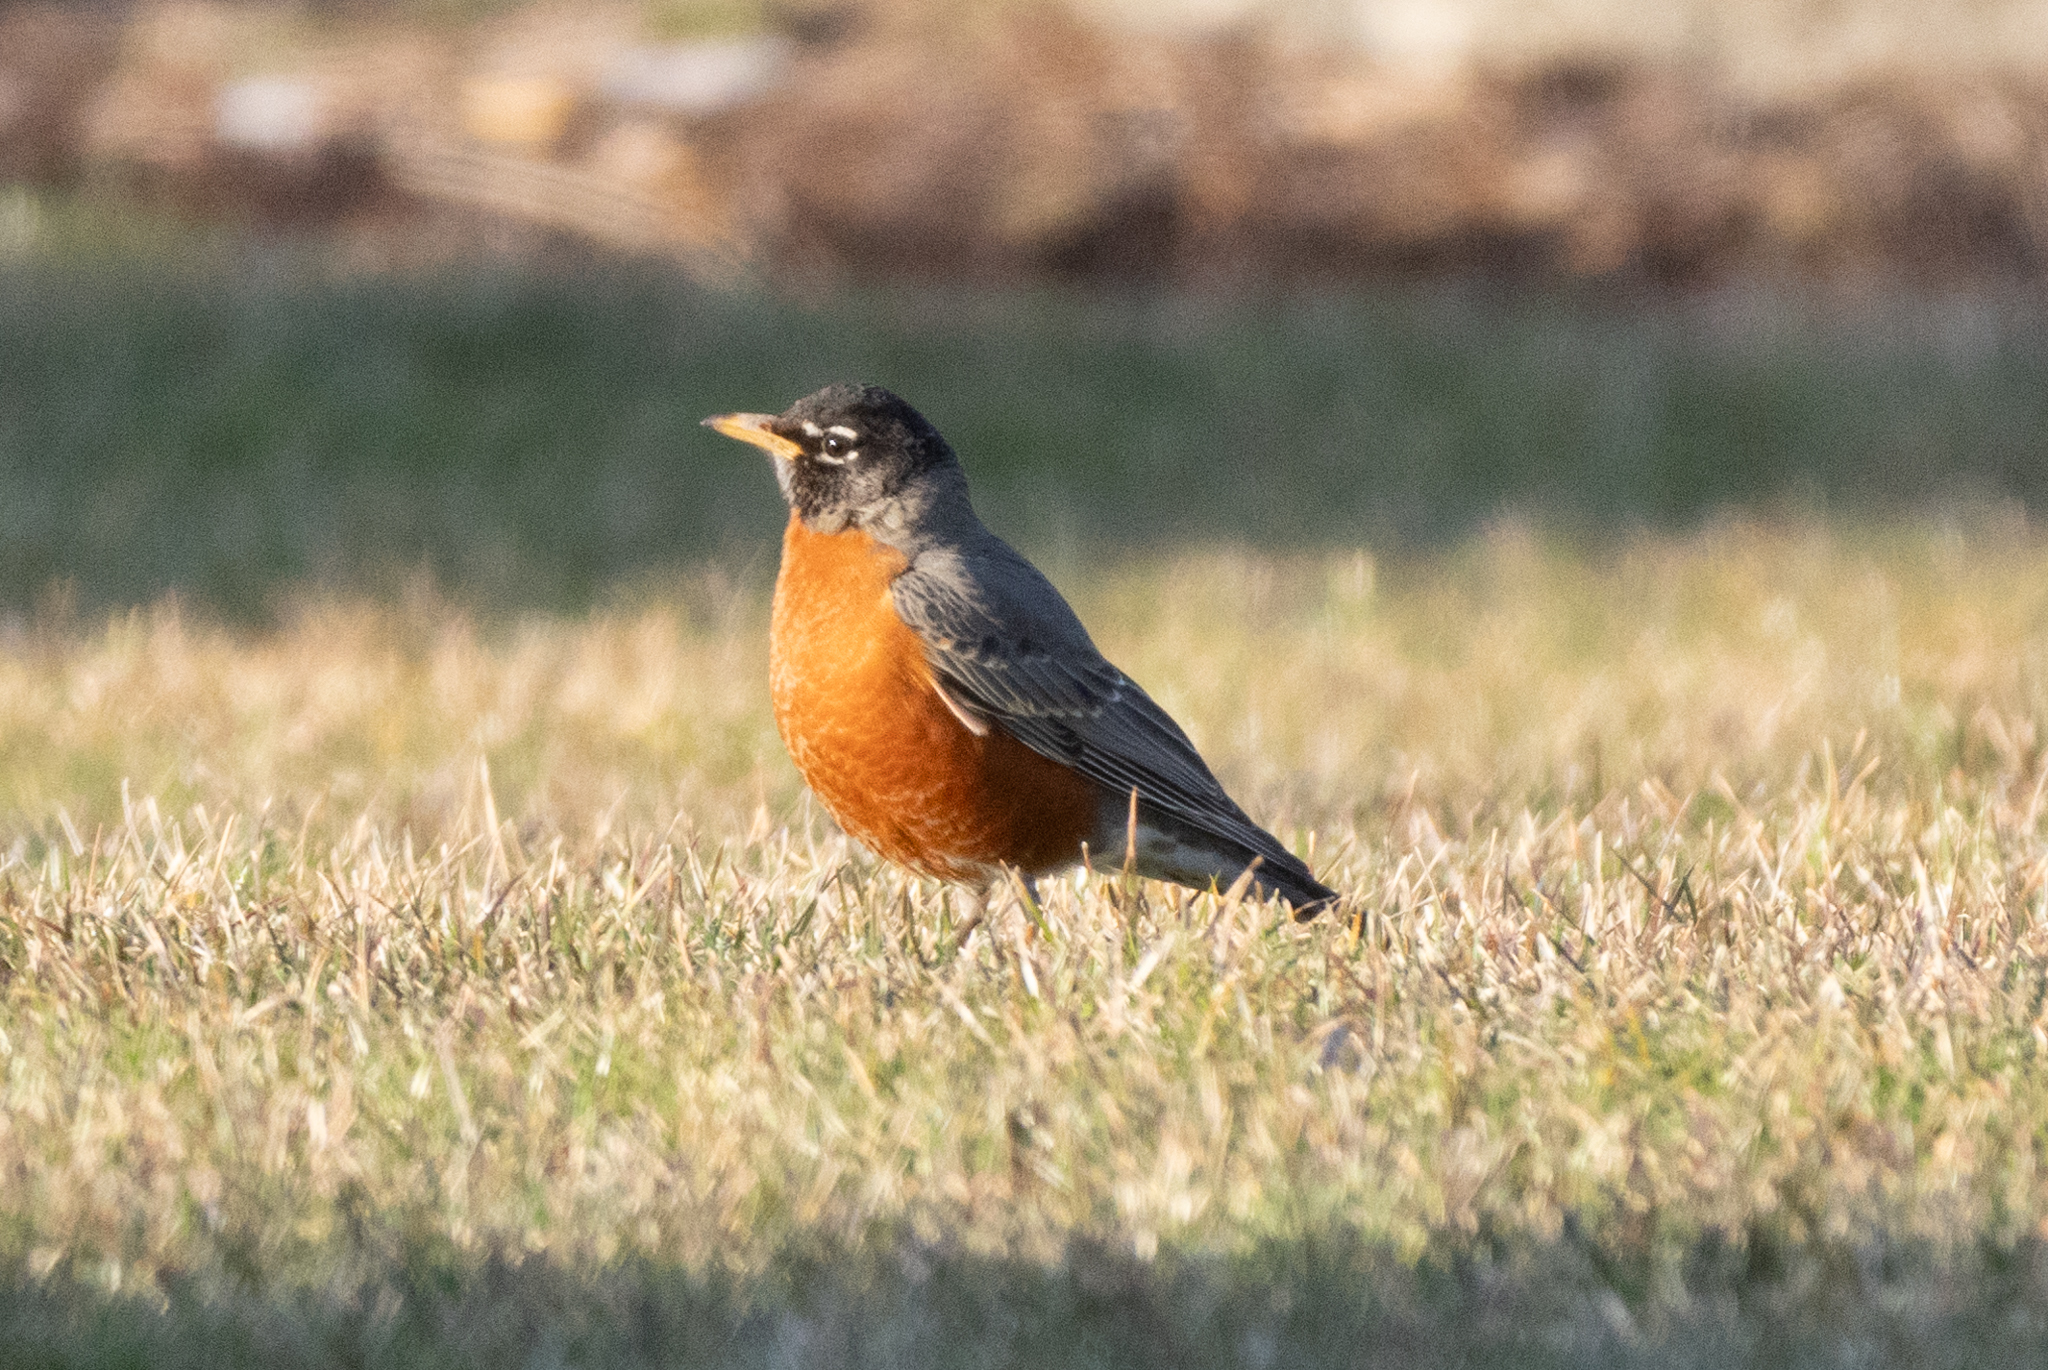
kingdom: Animalia
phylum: Chordata
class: Aves
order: Passeriformes
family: Turdidae
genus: Turdus
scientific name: Turdus migratorius
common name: American robin
